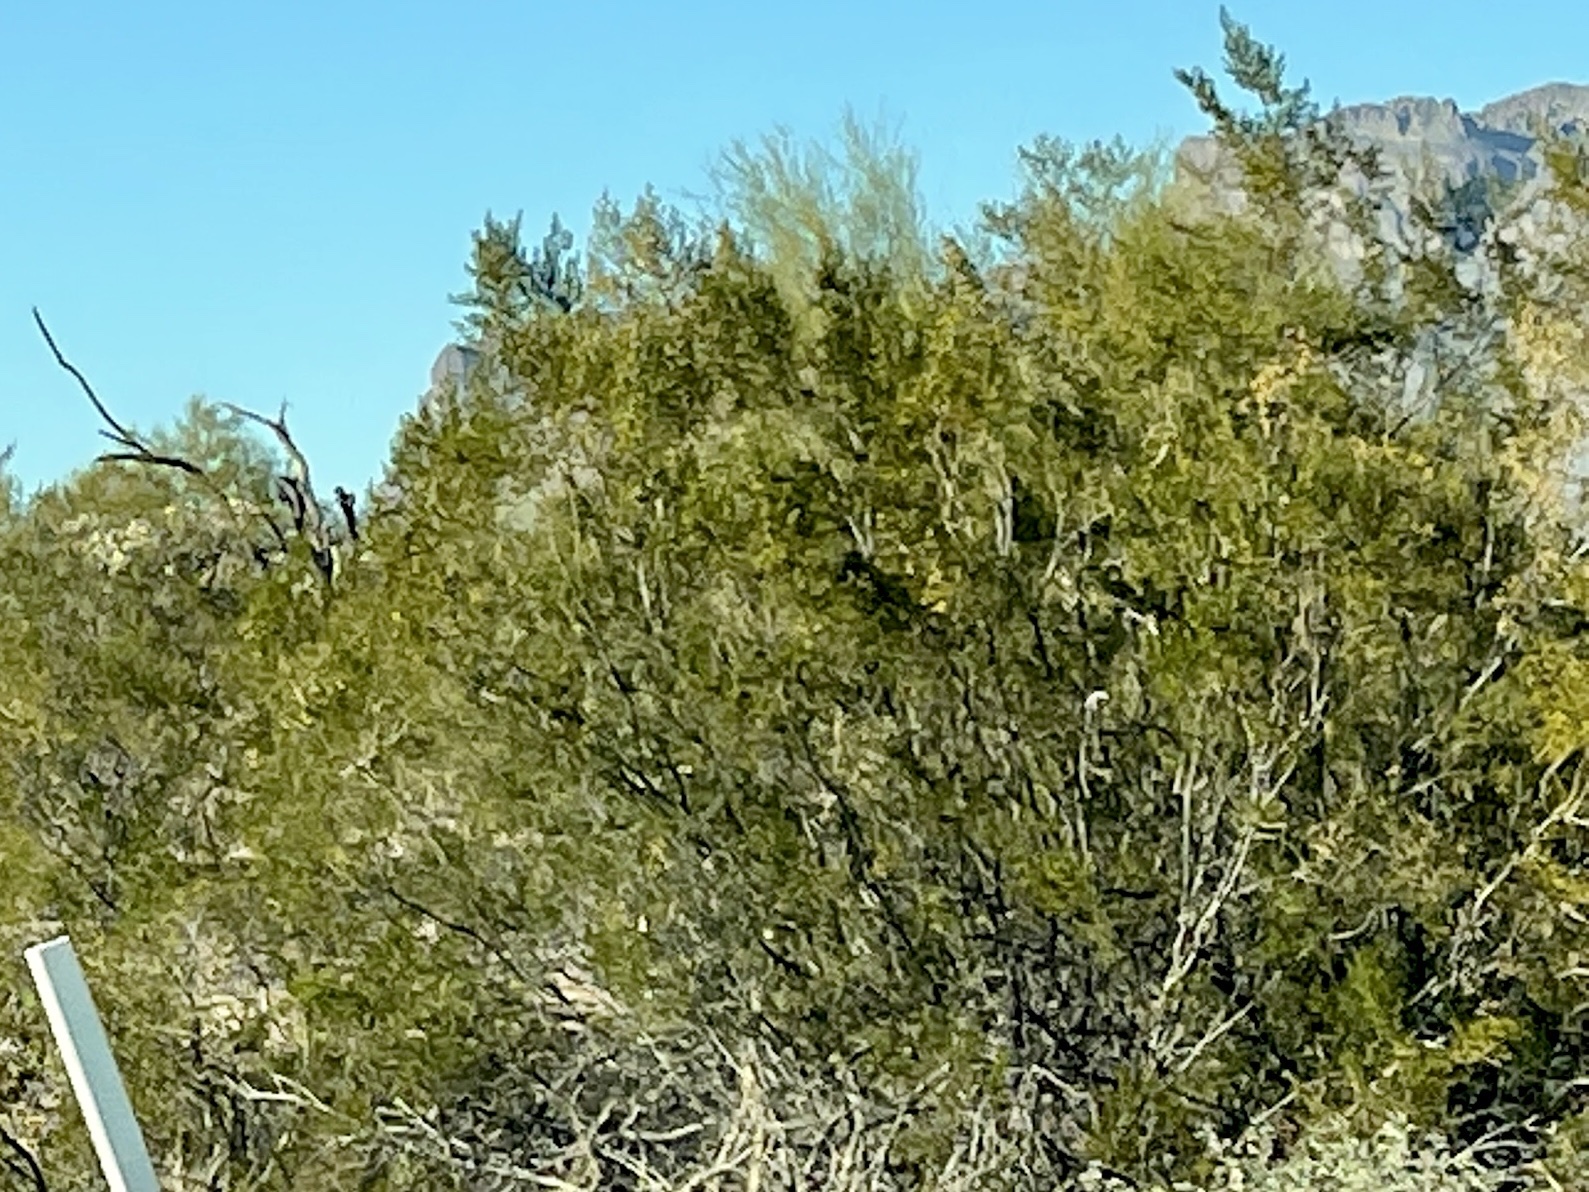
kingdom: Plantae
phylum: Tracheophyta
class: Magnoliopsida
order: Zygophyllales
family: Zygophyllaceae
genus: Larrea
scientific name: Larrea tridentata
